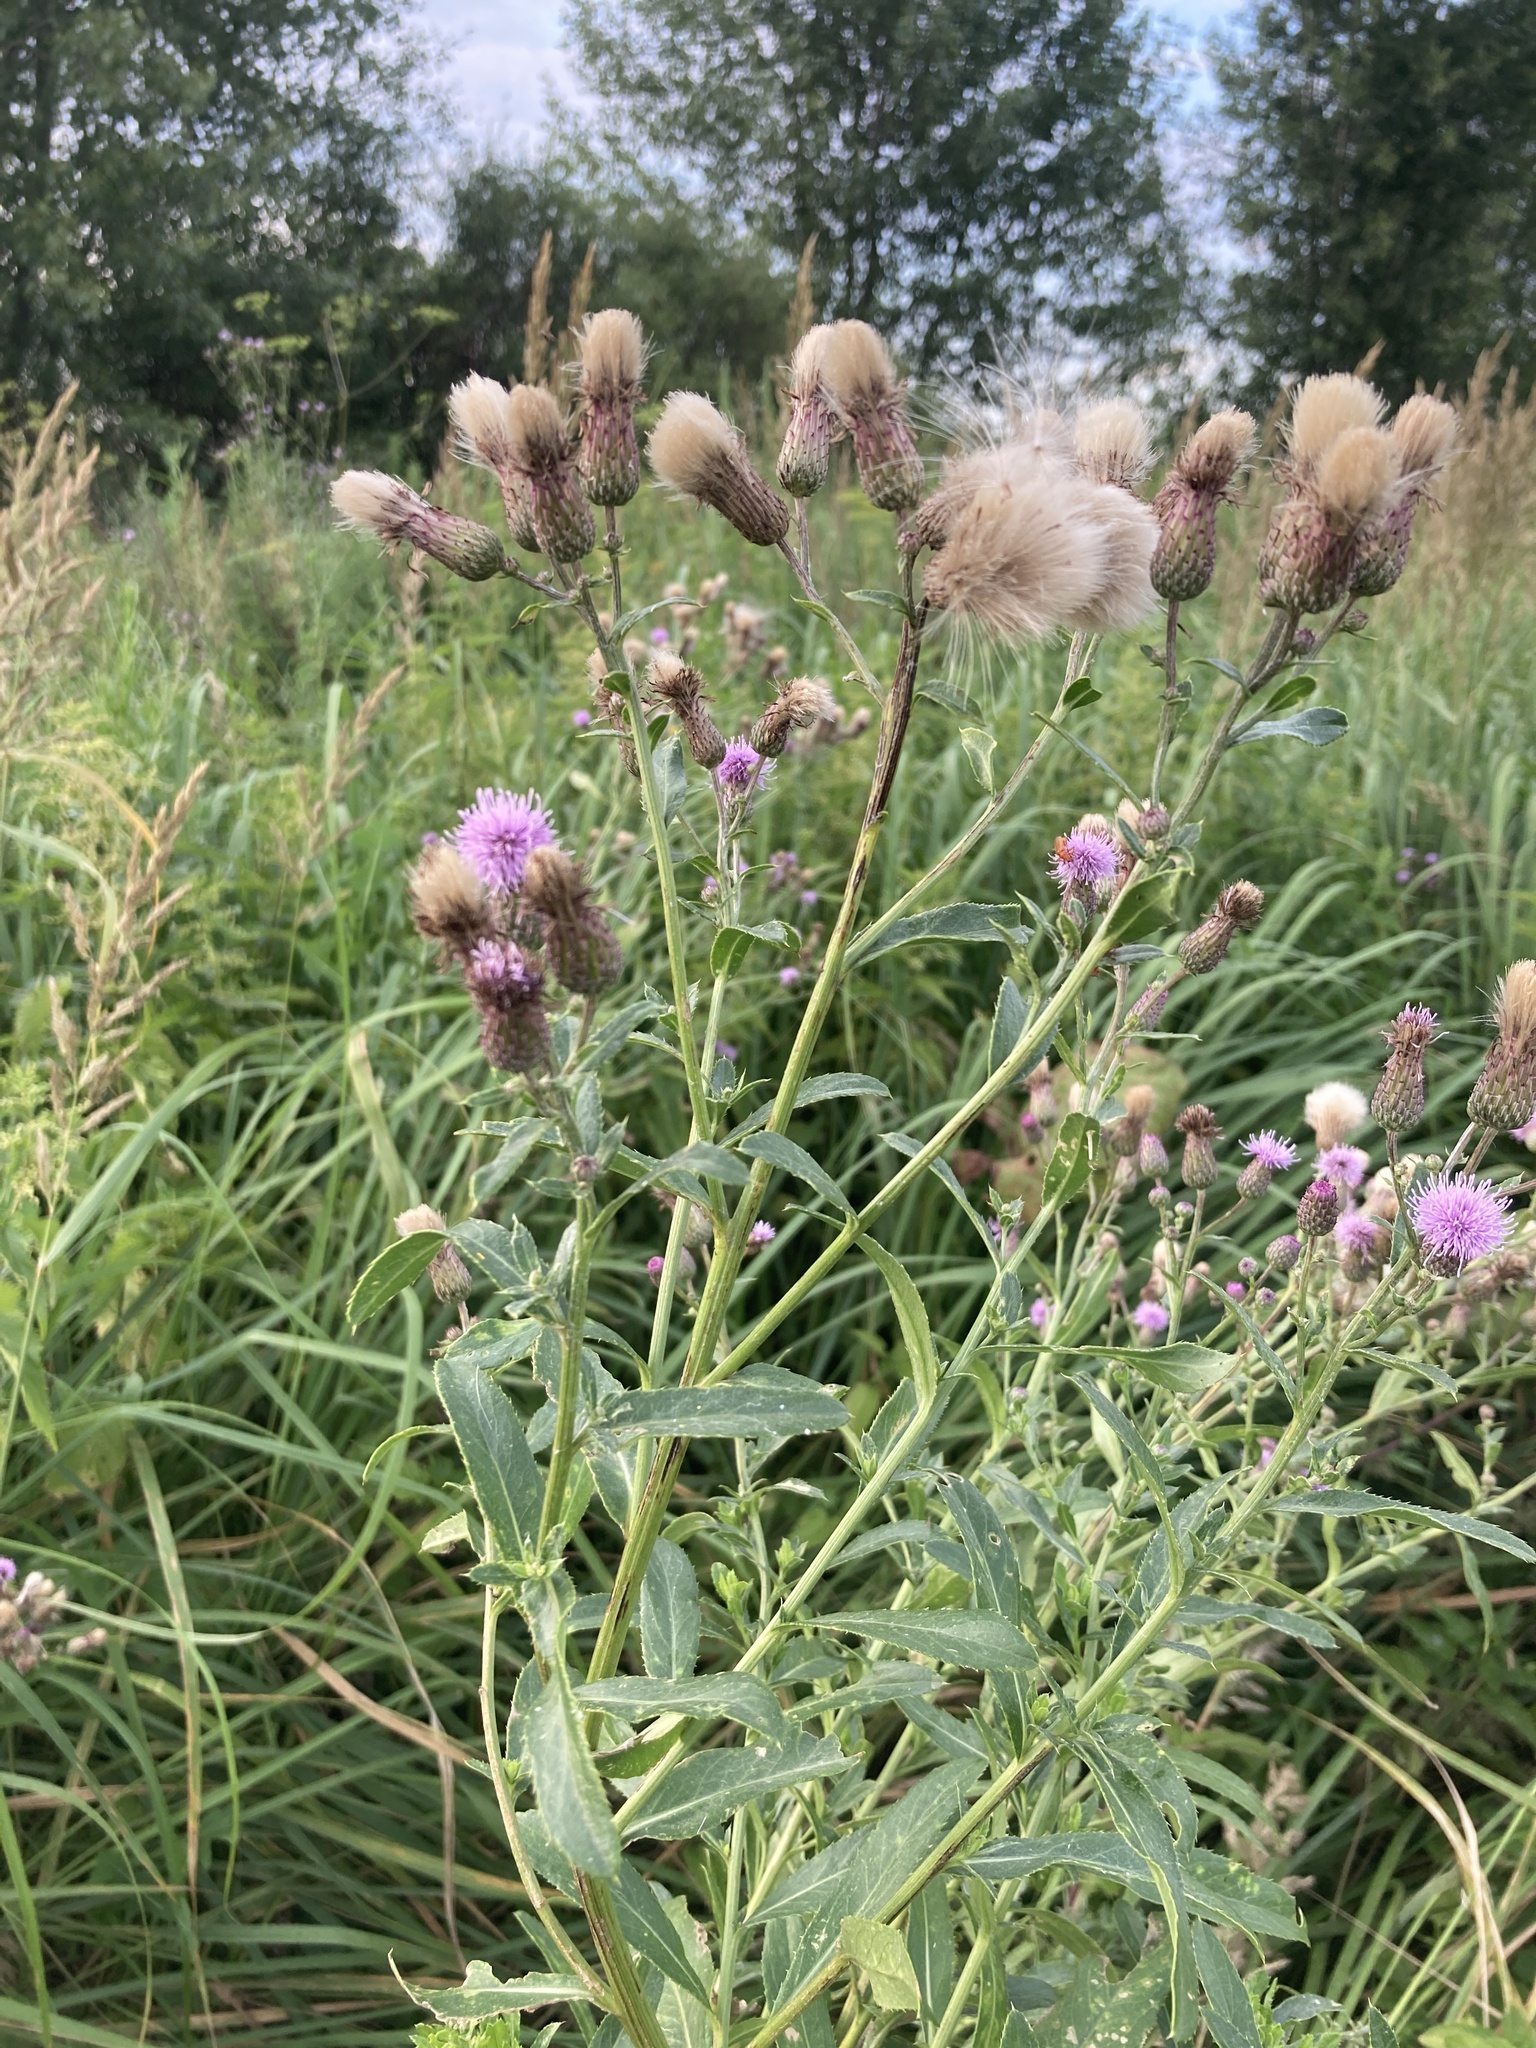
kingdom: Plantae
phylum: Tracheophyta
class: Magnoliopsida
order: Asterales
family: Asteraceae
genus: Cirsium
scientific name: Cirsium arvense
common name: Creeping thistle
